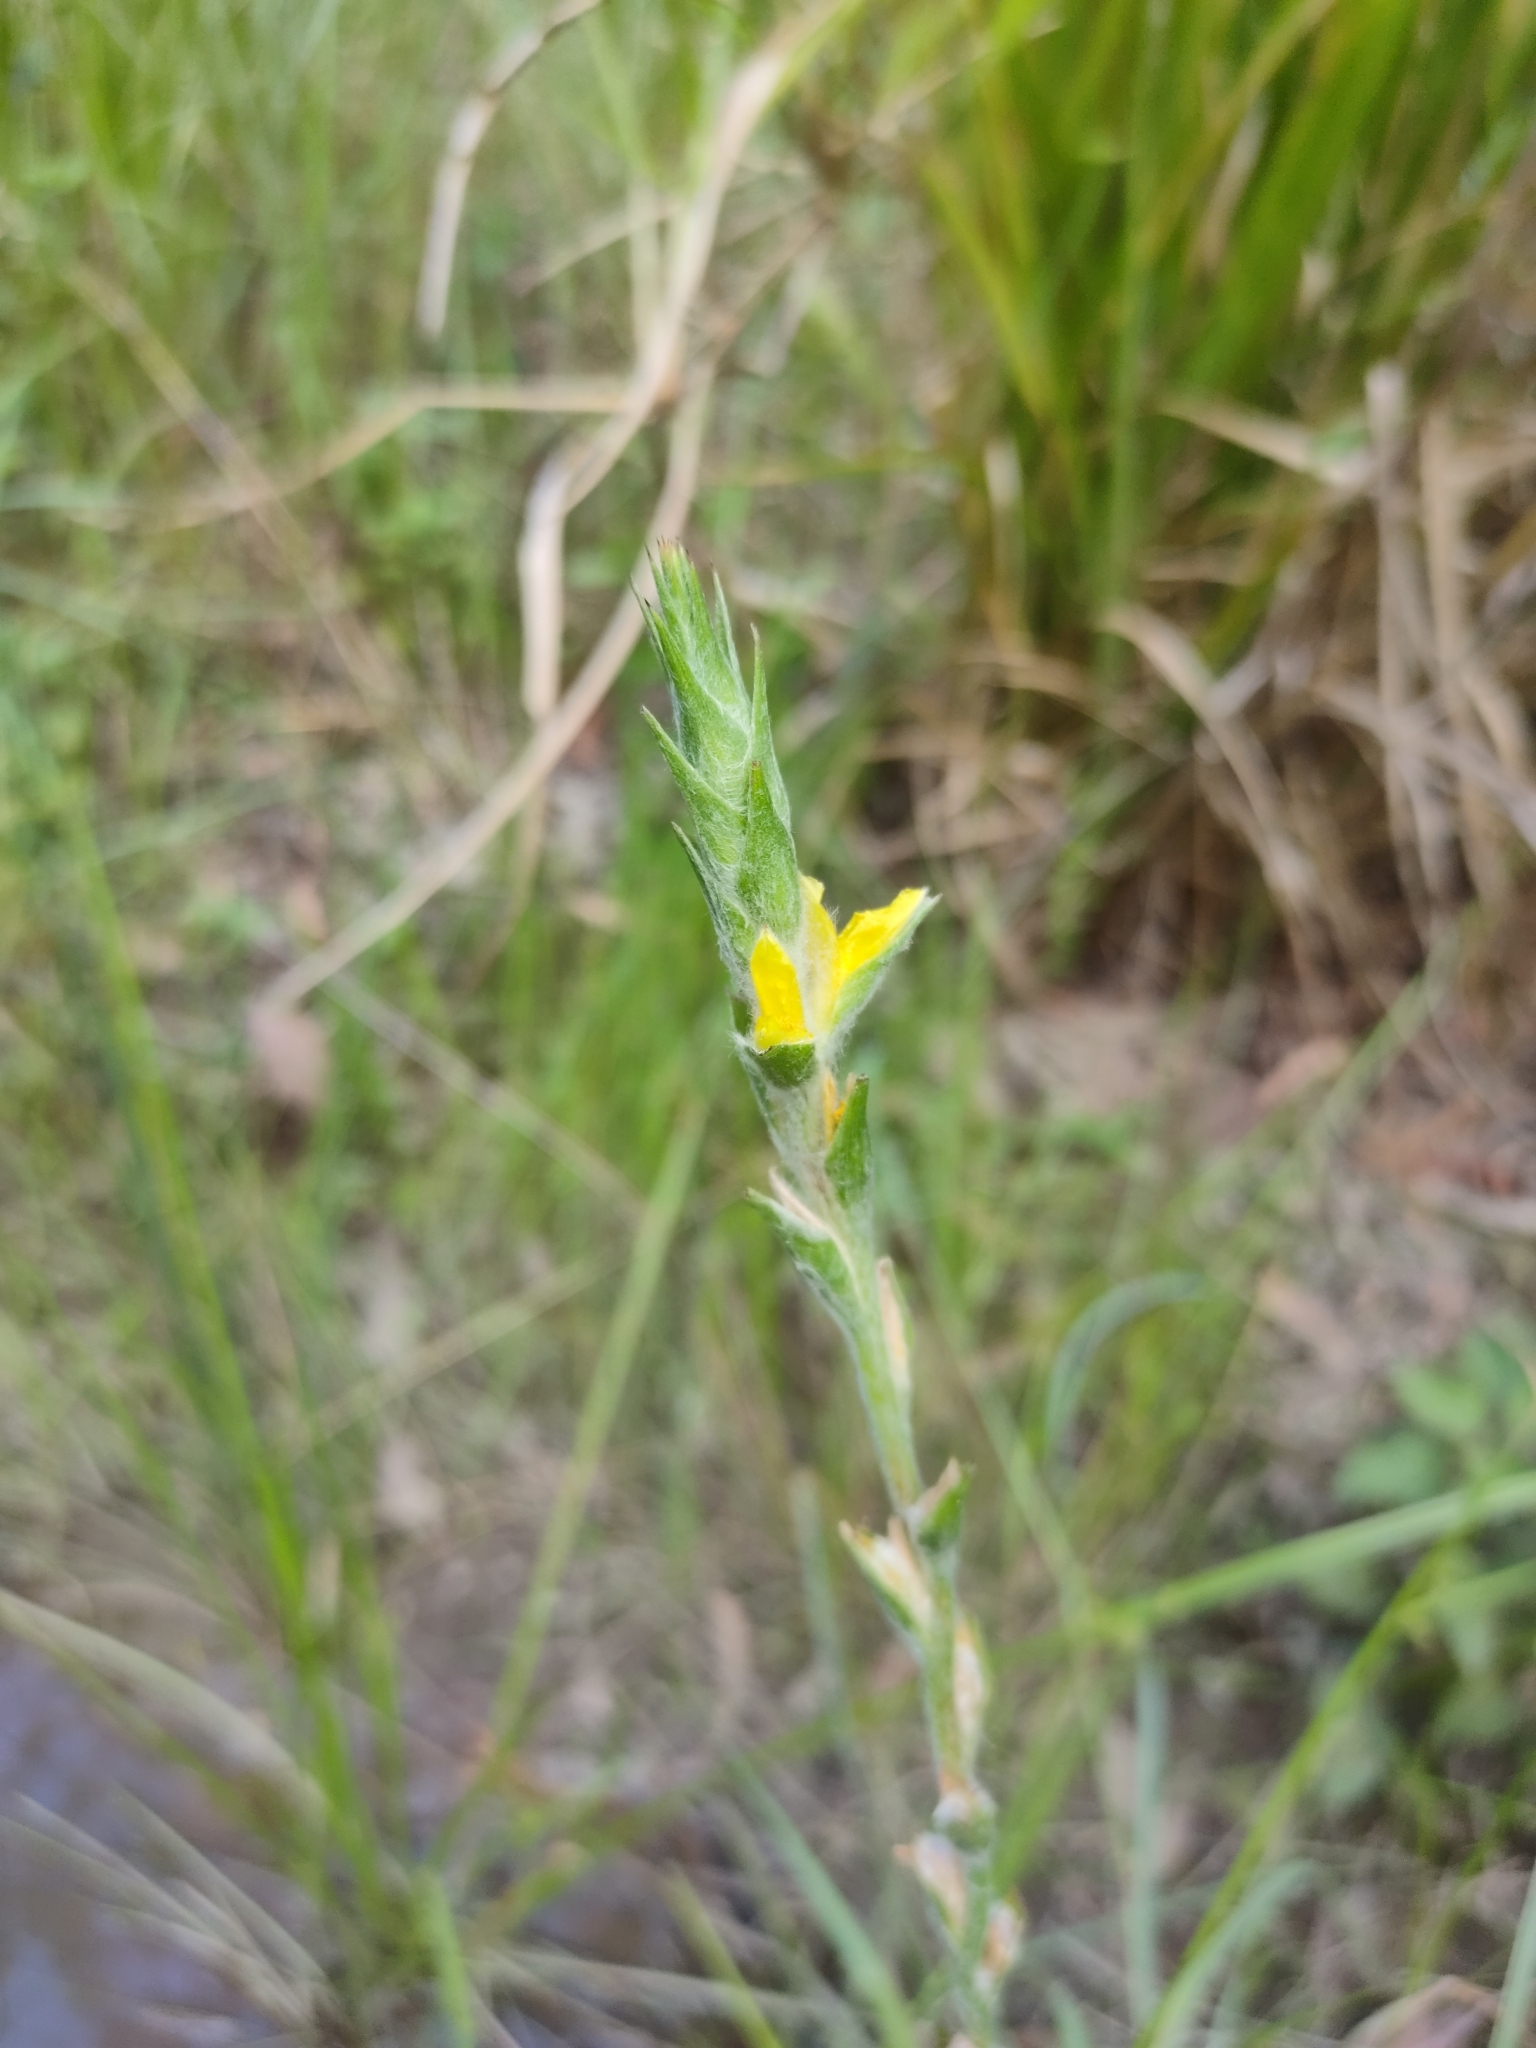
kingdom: Plantae
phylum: Tracheophyta
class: Liliopsida
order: Commelinales
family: Philydraceae
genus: Philydrum
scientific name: Philydrum lanuginosum
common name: Woolly frog's mouth
